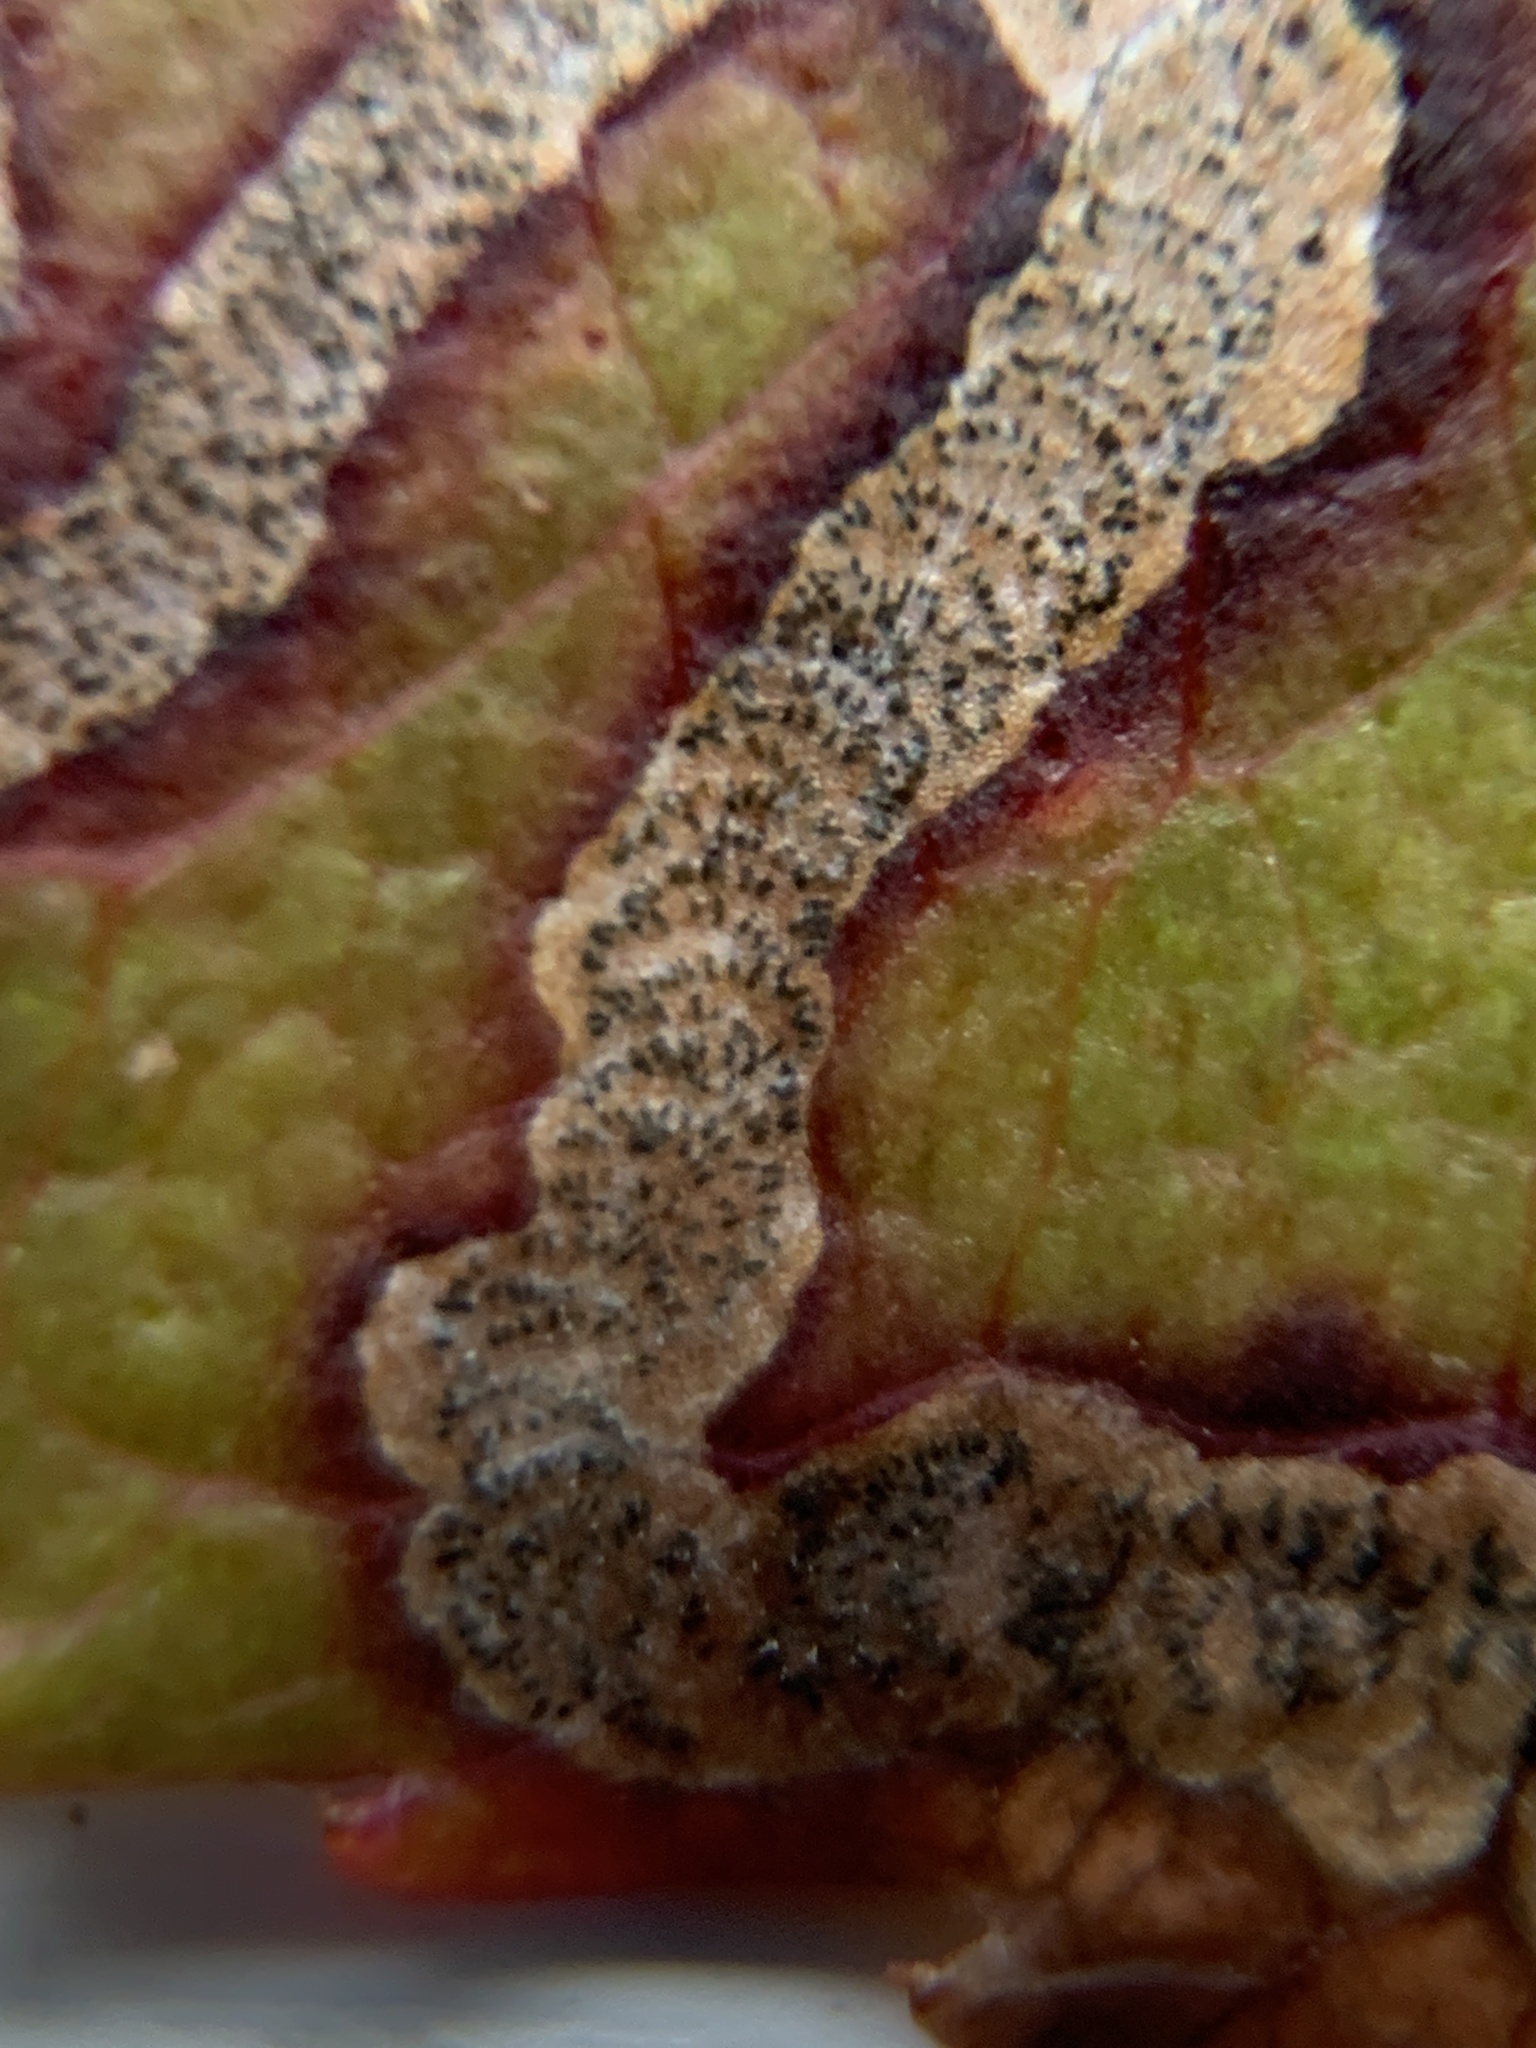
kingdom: Animalia
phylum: Arthropoda
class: Insecta
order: Lepidoptera
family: Nepticulidae
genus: Stigmella
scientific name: Stigmella prunifoliella
